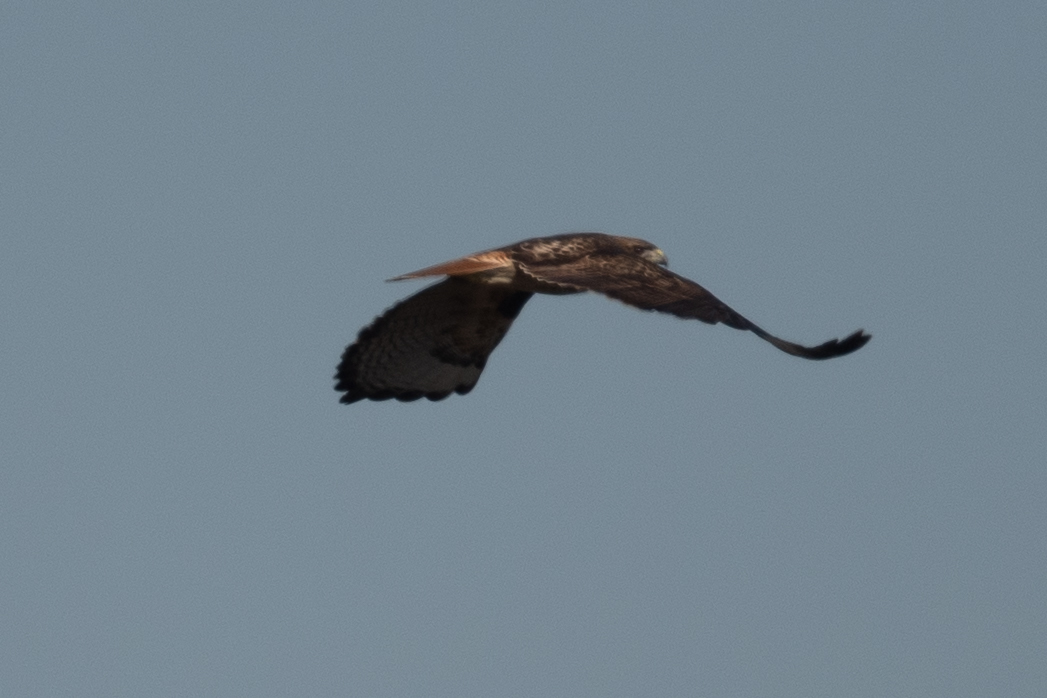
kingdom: Animalia
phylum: Chordata
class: Aves
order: Accipitriformes
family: Accipitridae
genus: Buteo
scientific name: Buteo jamaicensis
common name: Red-tailed hawk
